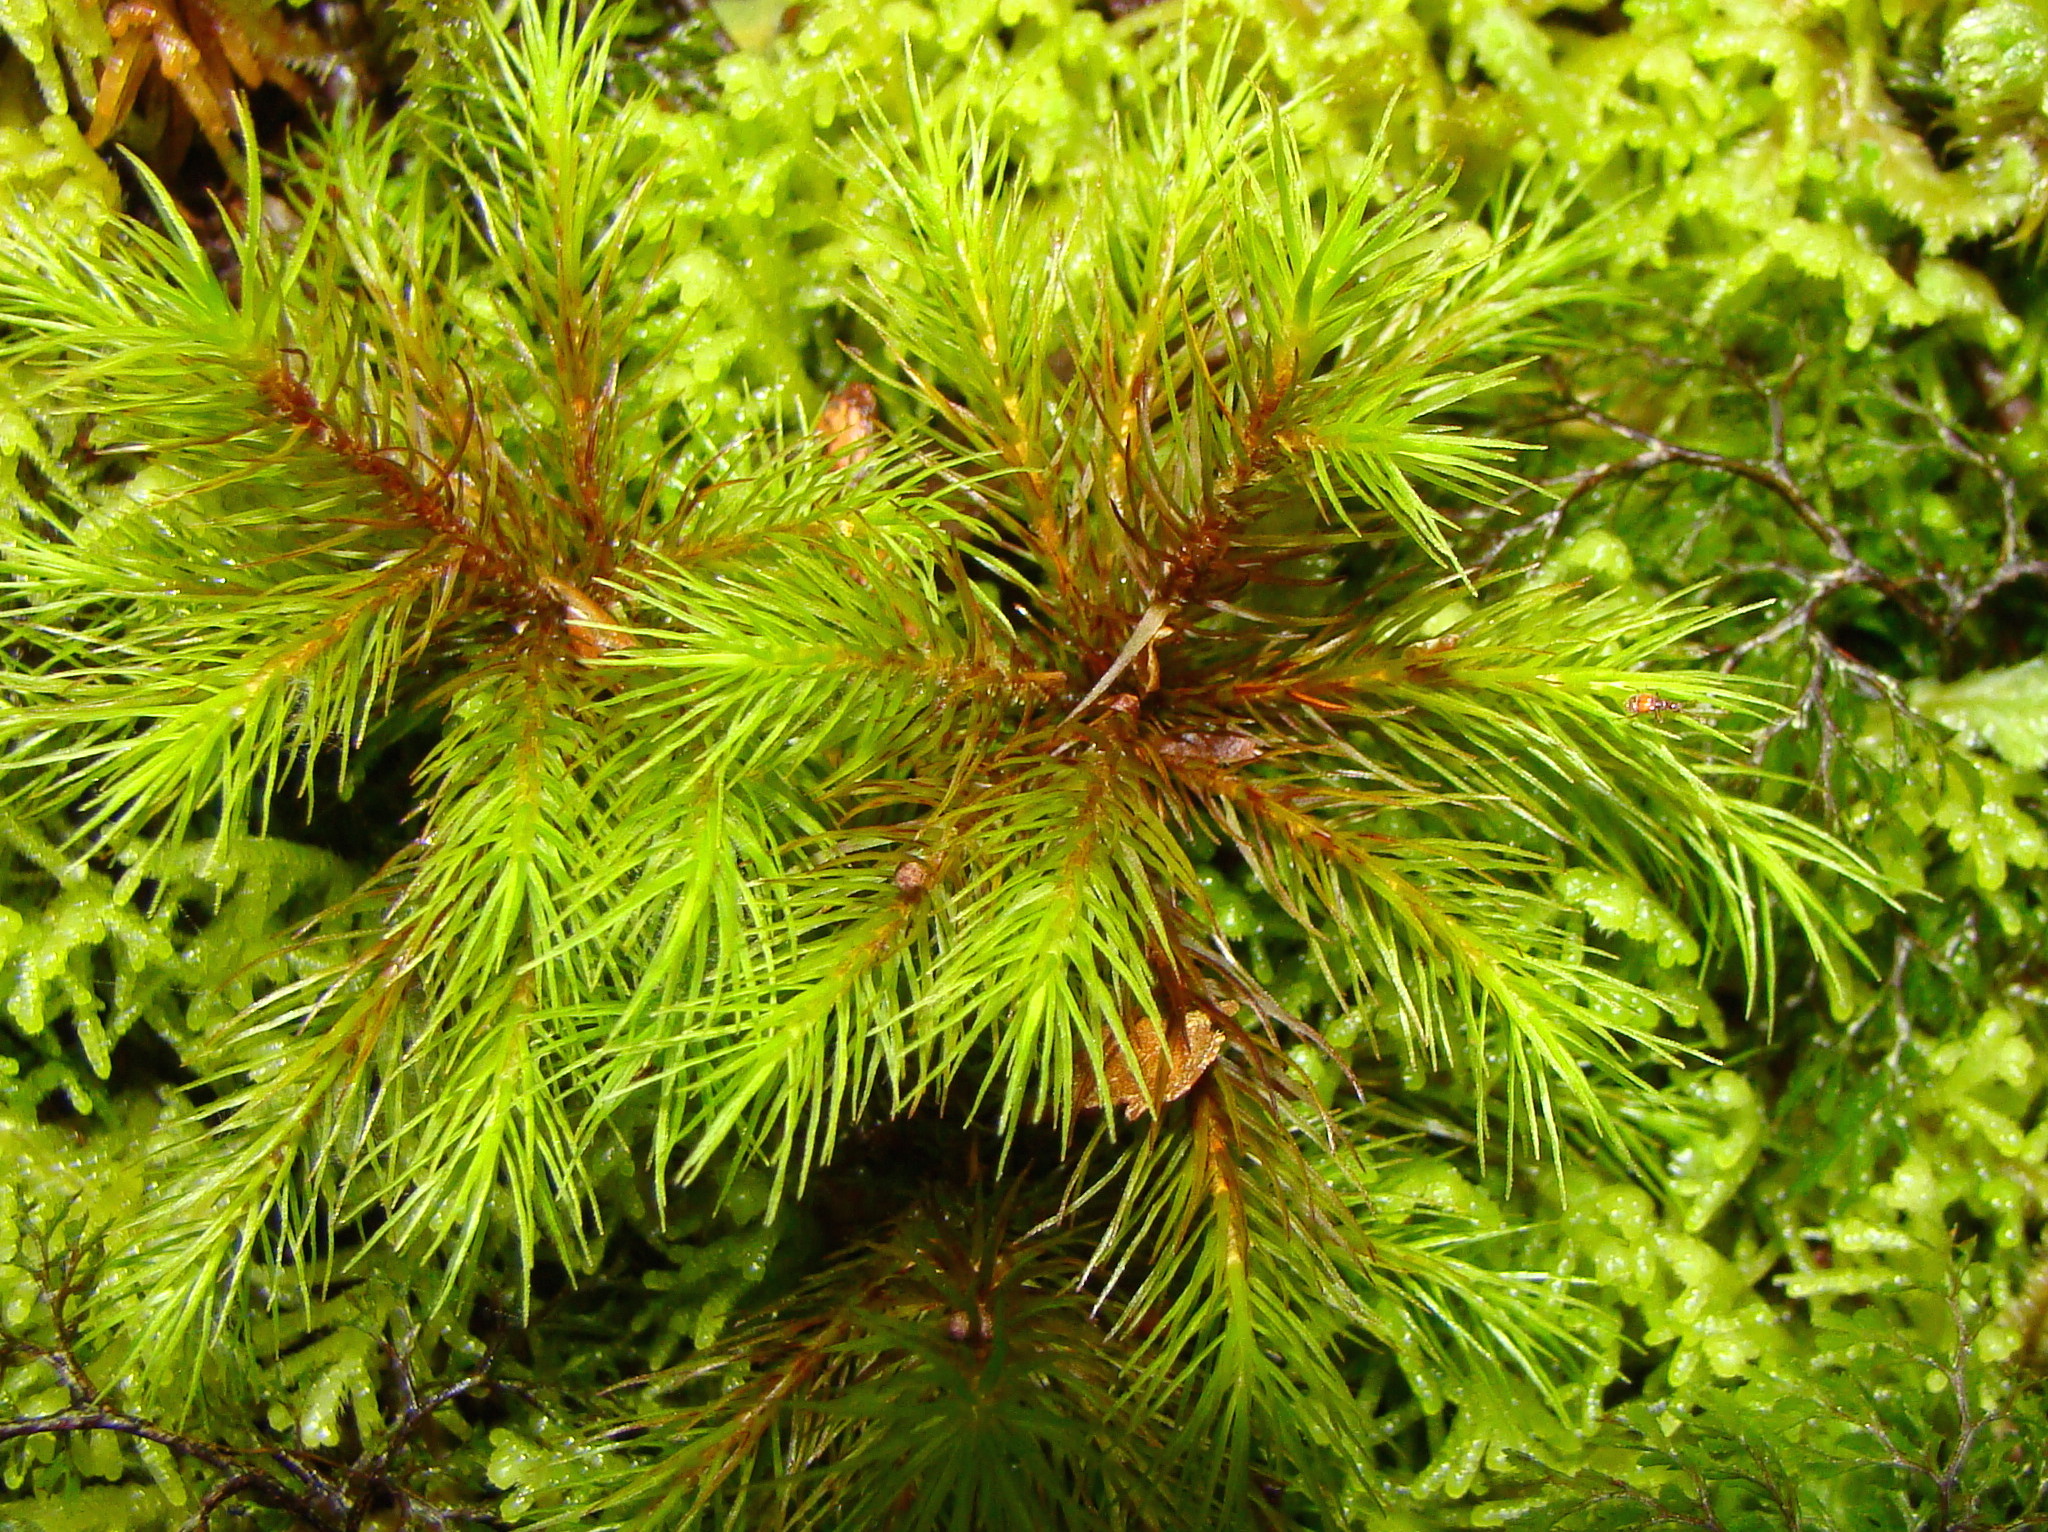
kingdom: Plantae
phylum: Bryophyta
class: Polytrichopsida
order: Polytrichales
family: Polytrichaceae
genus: Dendroligotrichum
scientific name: Dendroligotrichum tongariroense
